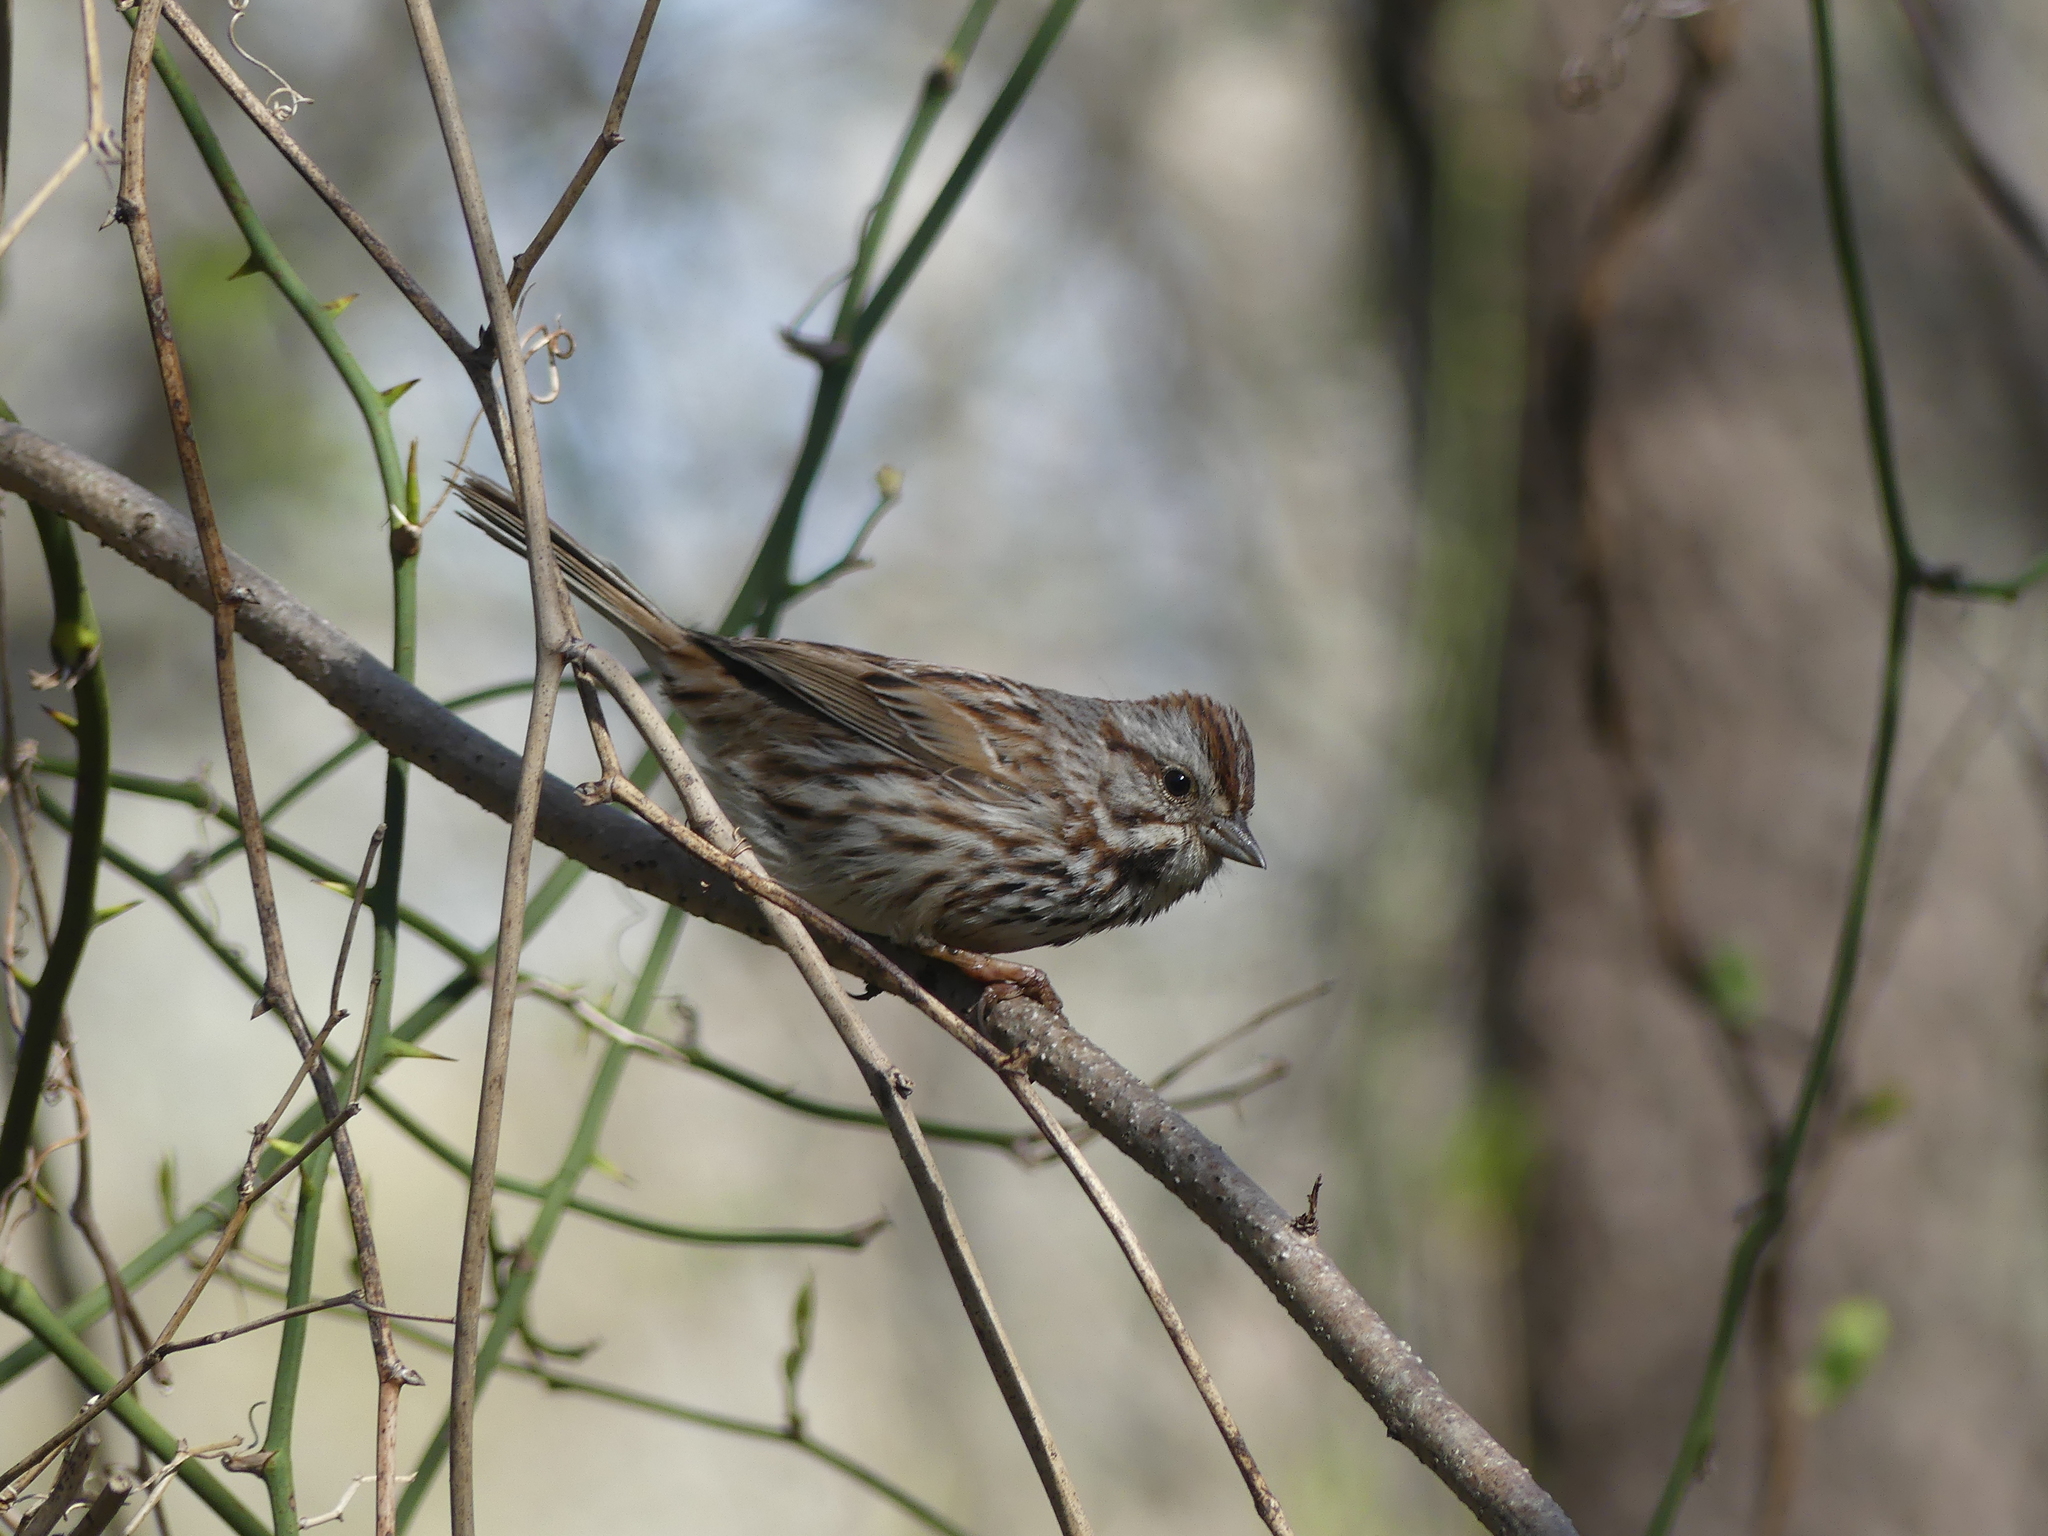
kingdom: Animalia
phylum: Chordata
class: Aves
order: Passeriformes
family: Passerellidae
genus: Melospiza
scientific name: Melospiza melodia
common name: Song sparrow
